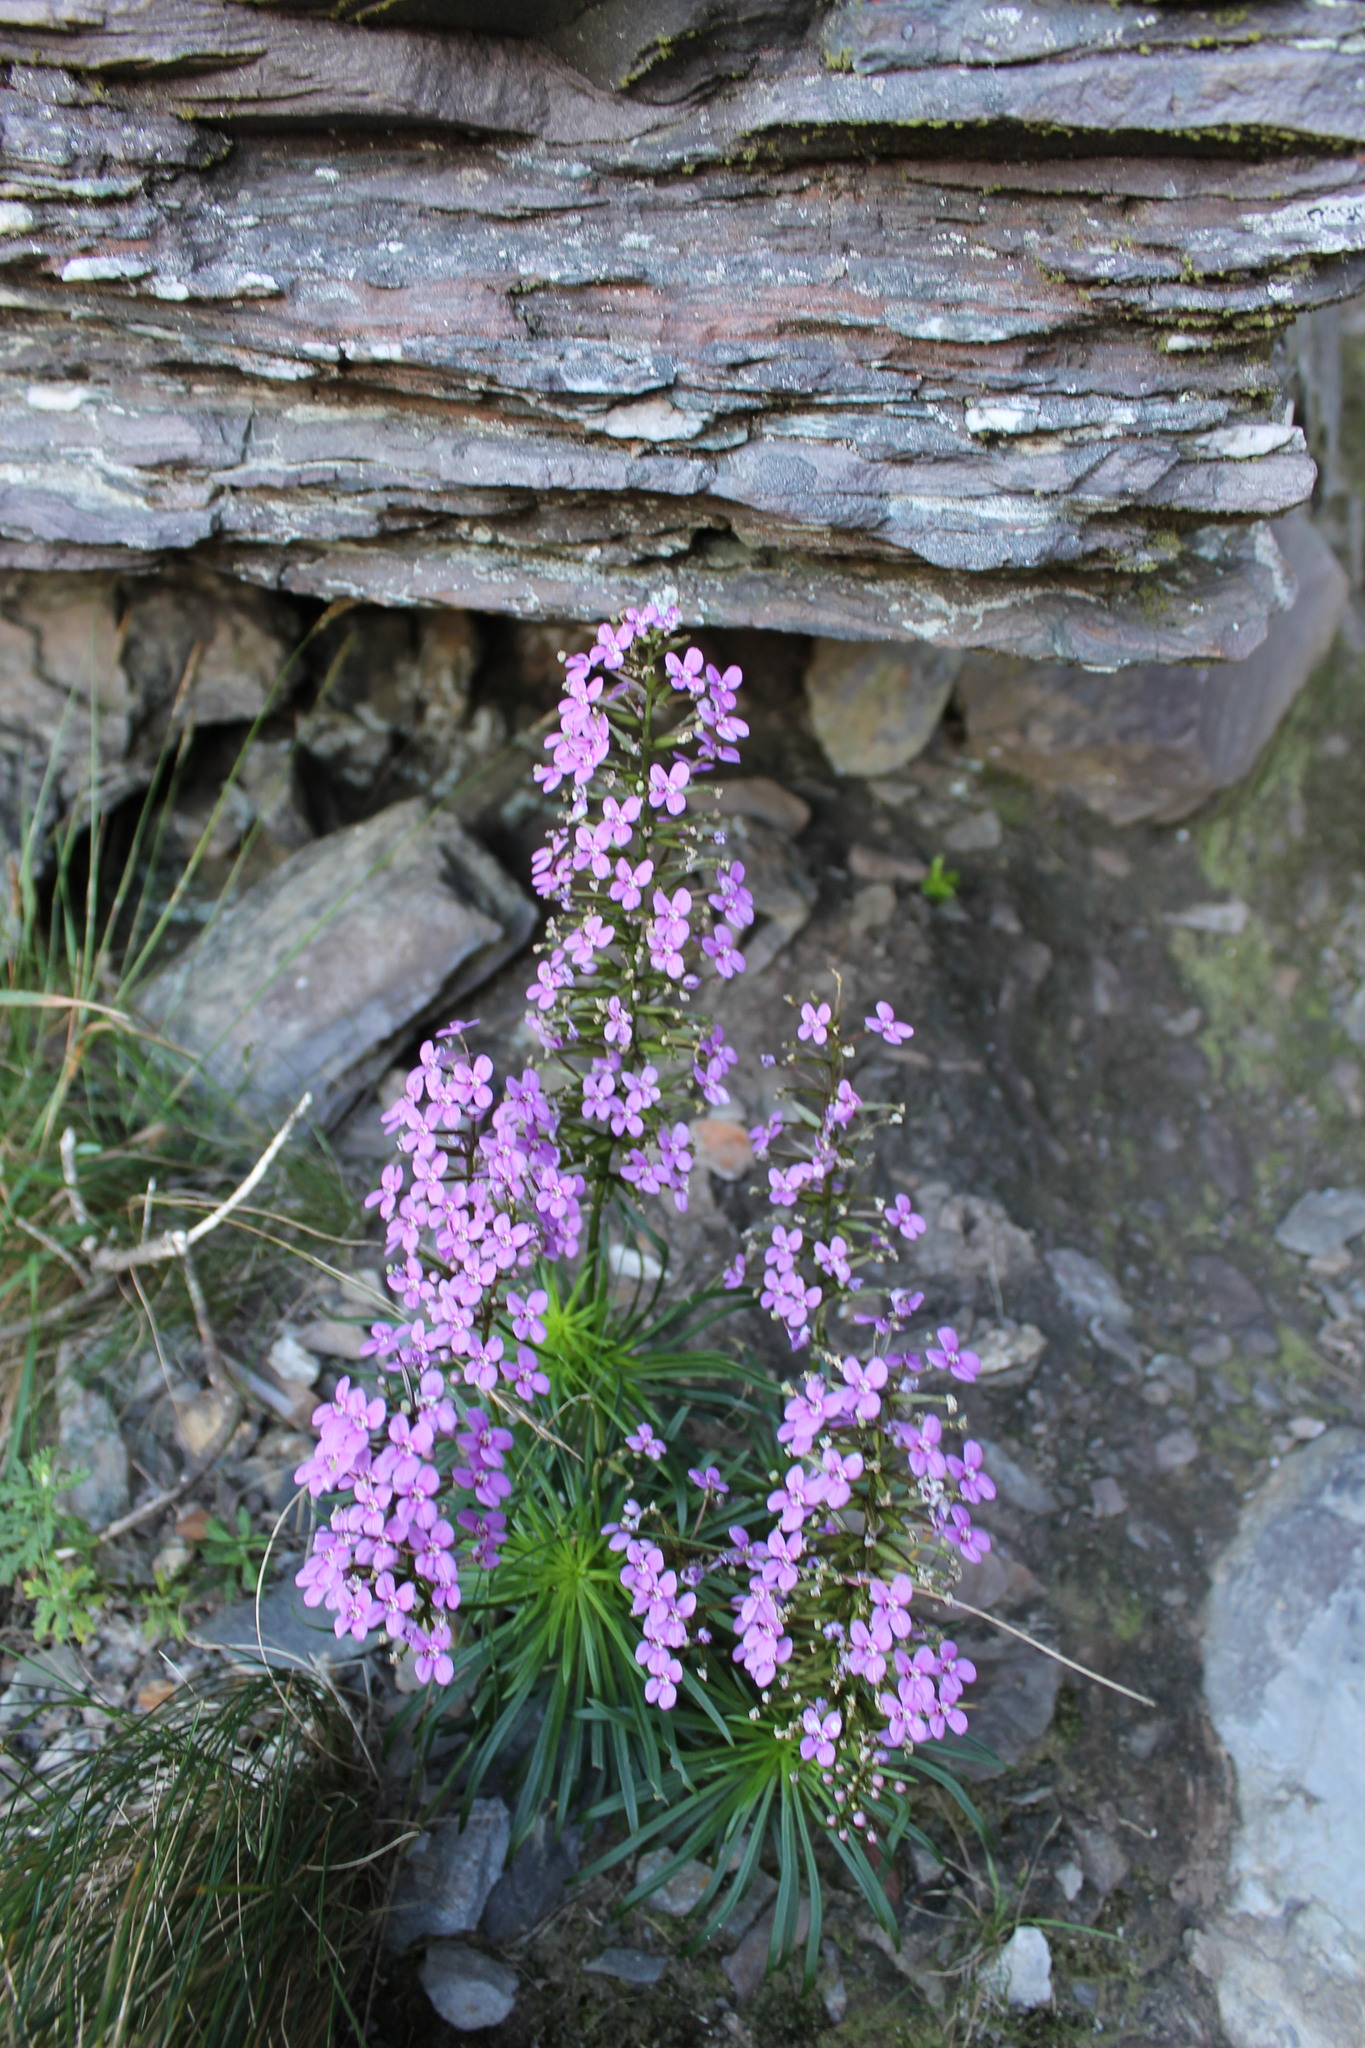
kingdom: Plantae
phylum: Tracheophyta
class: Magnoliopsida
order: Asterales
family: Stylidiaceae
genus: Stylidium
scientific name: Stylidium oreophilum
